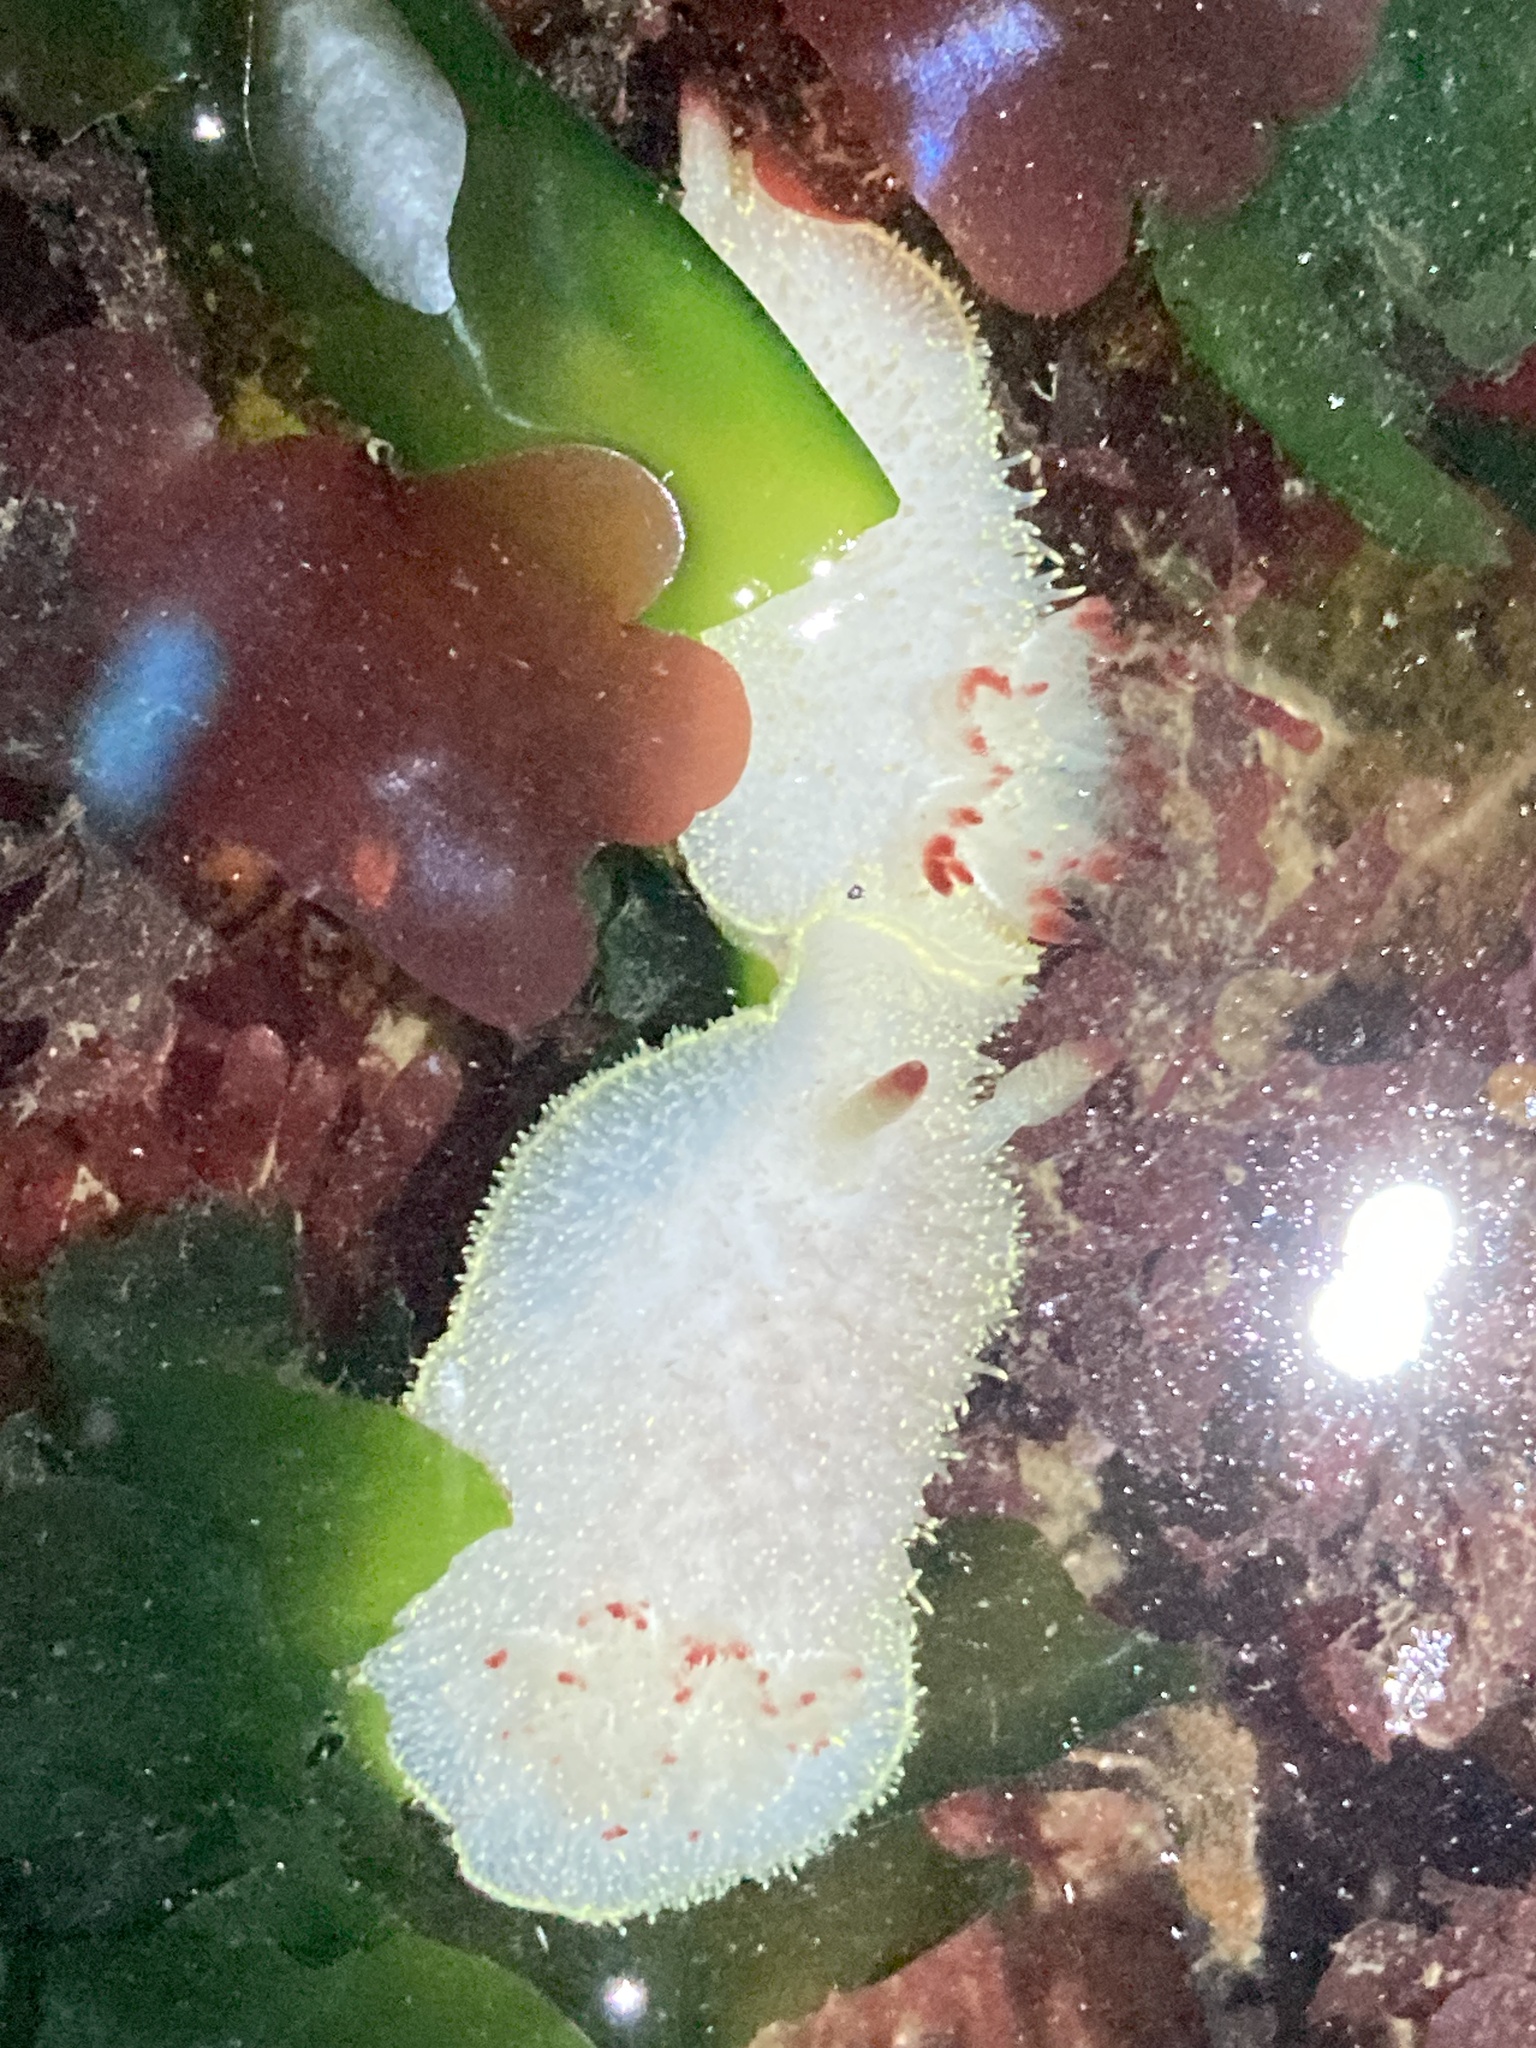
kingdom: Animalia
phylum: Mollusca
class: Gastropoda
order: Nudibranchia
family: Onchidorididae
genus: Acanthodoris
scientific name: Acanthodoris nanaimoensis
